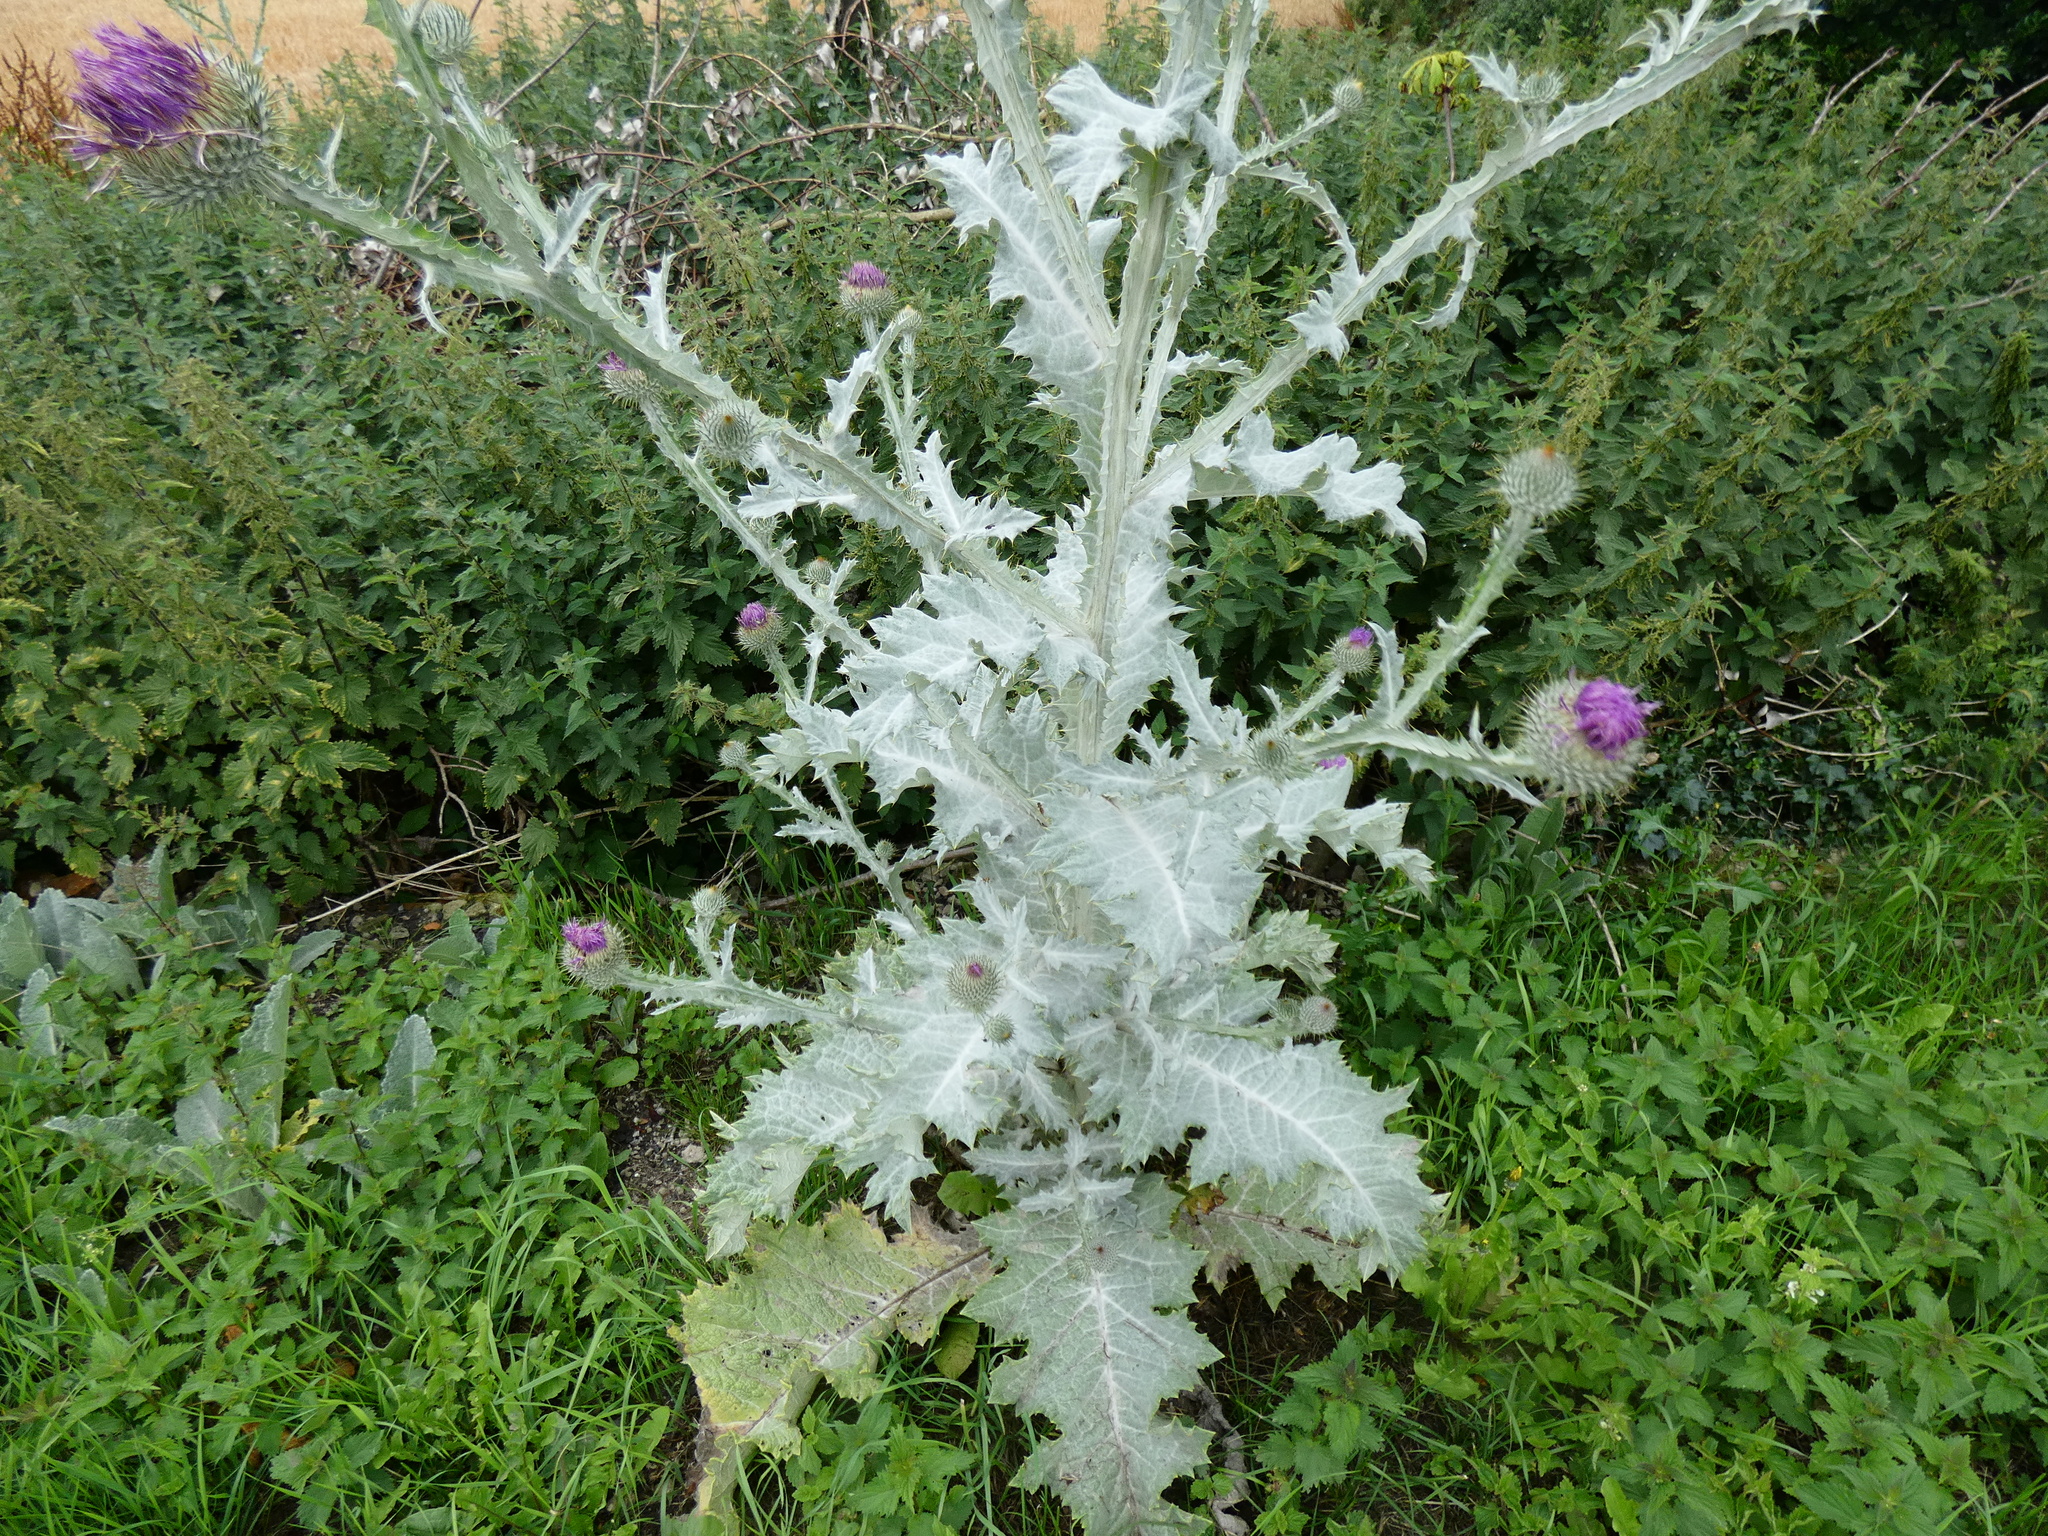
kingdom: Plantae
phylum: Tracheophyta
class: Magnoliopsida
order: Asterales
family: Asteraceae
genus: Onopordum
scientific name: Onopordum acanthium
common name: Scotch thistle
